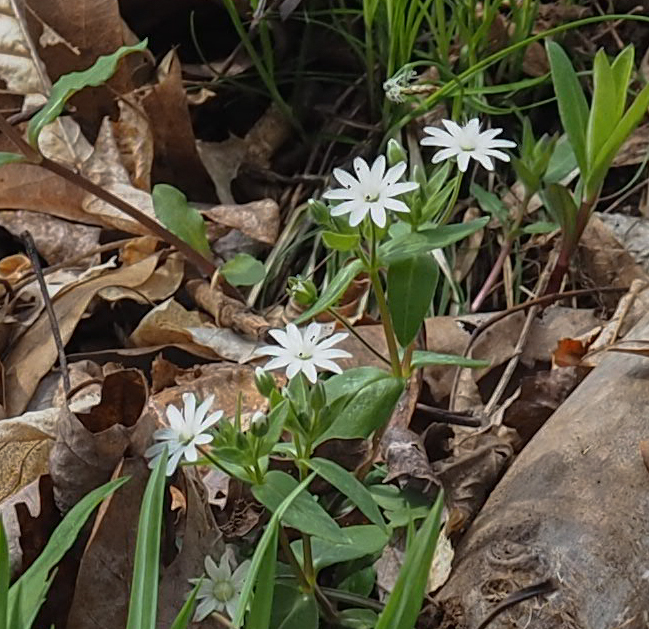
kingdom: Plantae
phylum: Tracheophyta
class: Magnoliopsida
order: Caryophyllales
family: Caryophyllaceae
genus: Stellaria
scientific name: Stellaria pubera
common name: Star chickweed
